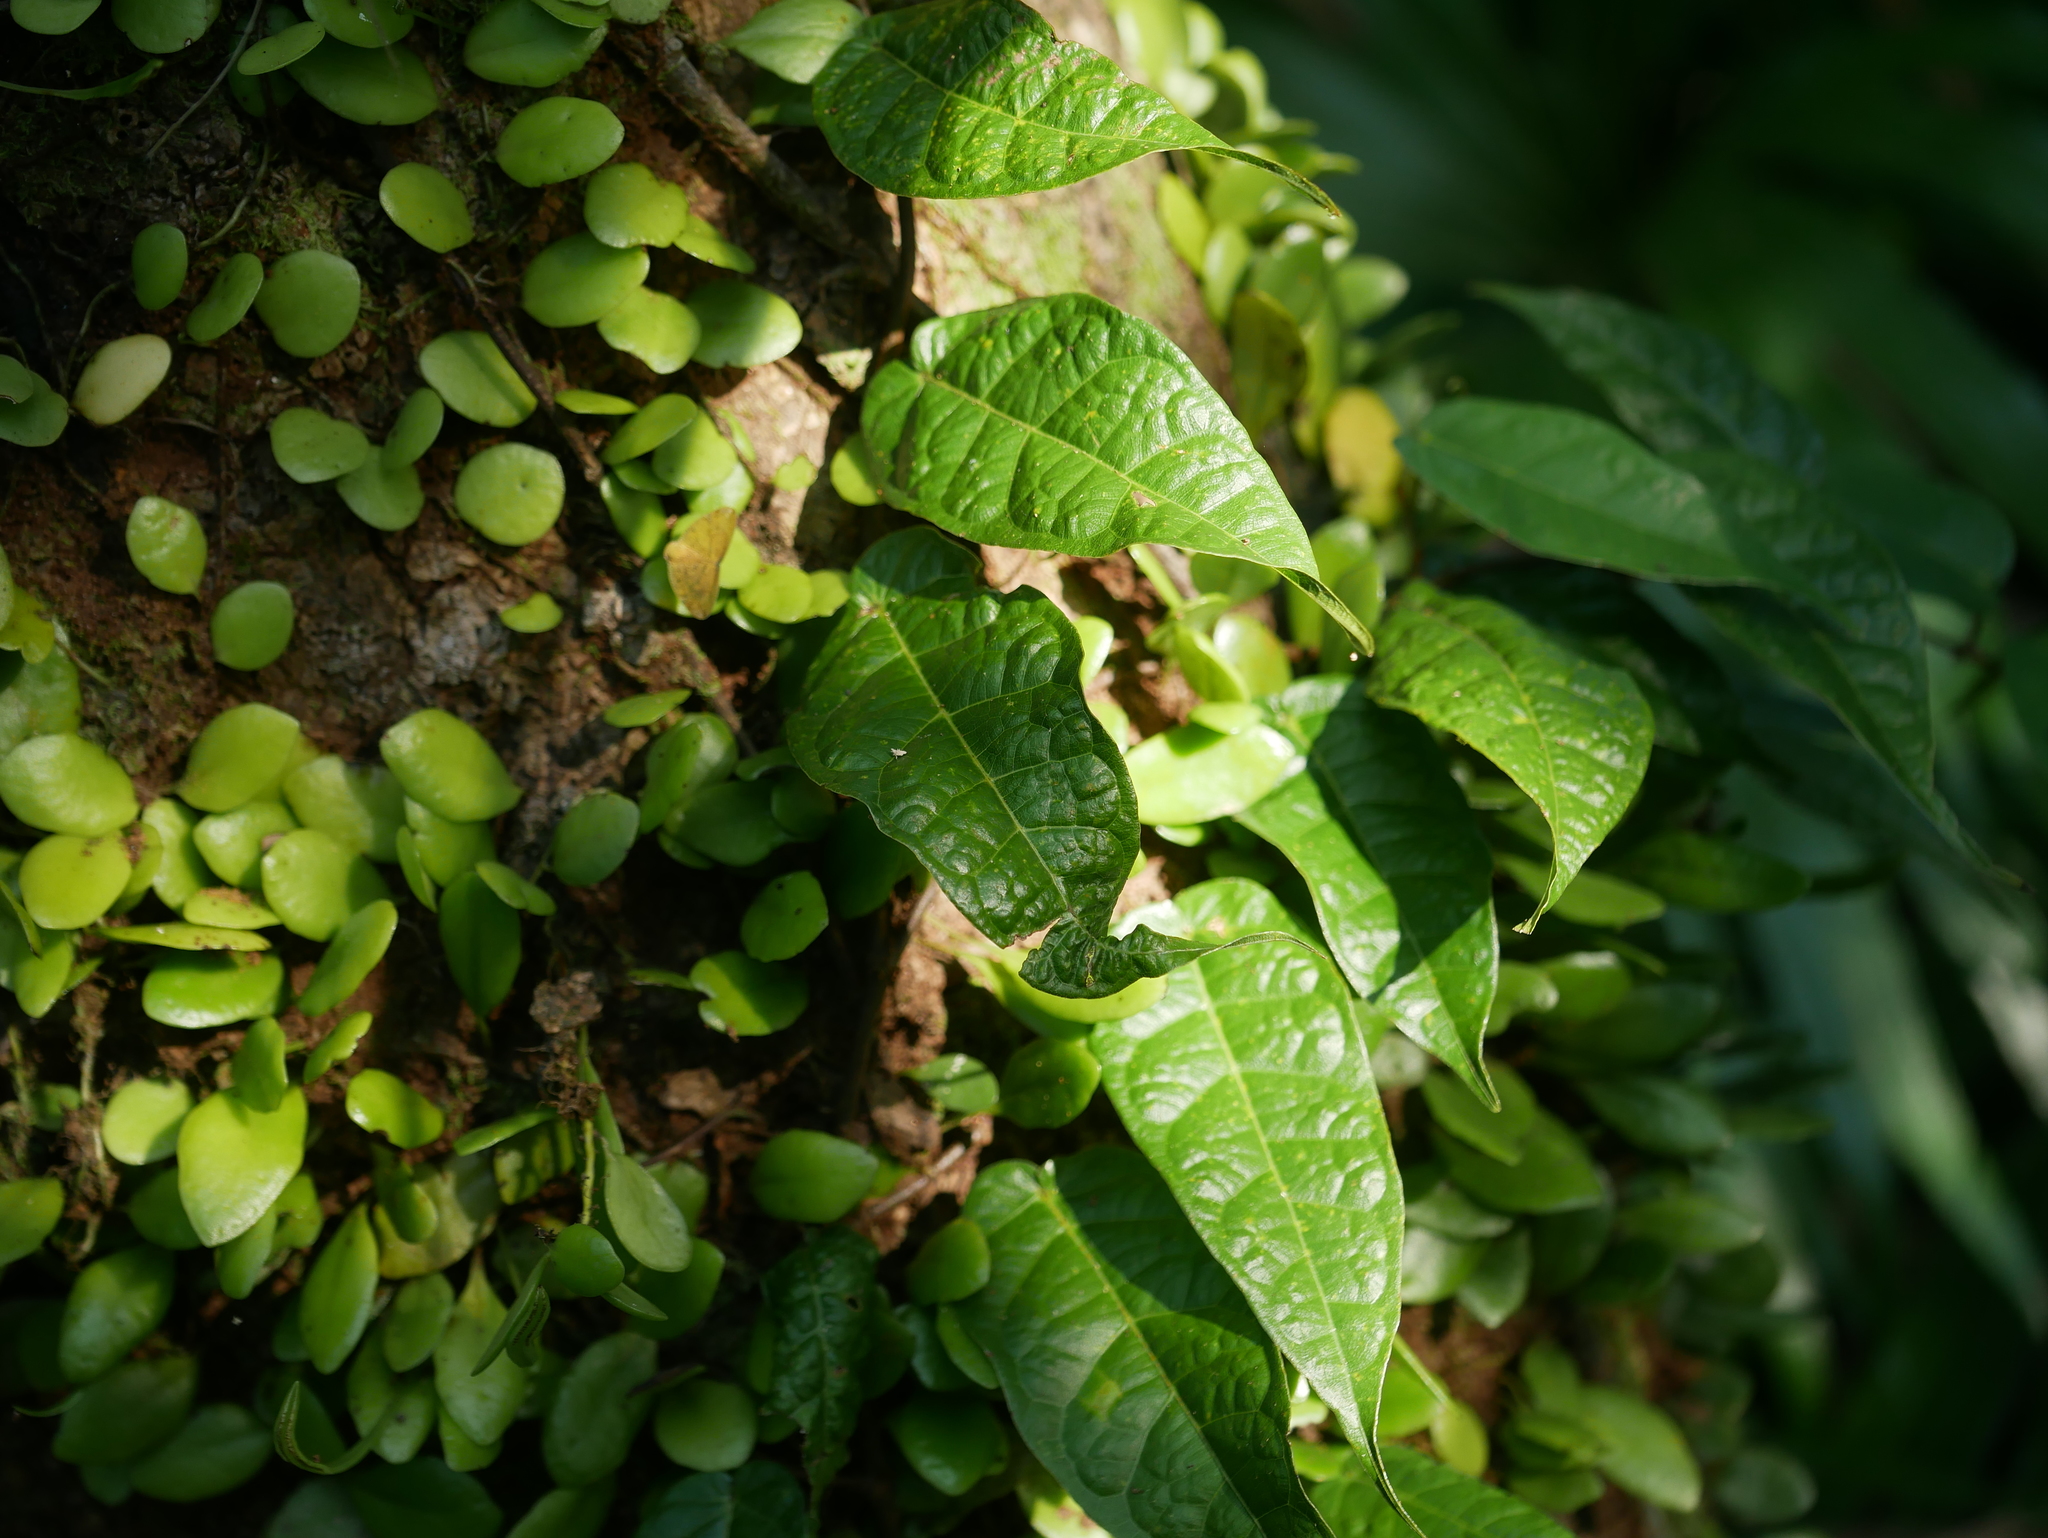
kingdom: Plantae
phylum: Tracheophyta
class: Magnoliopsida
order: Rosales
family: Moraceae
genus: Ficus
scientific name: Ficus sarmentosa
